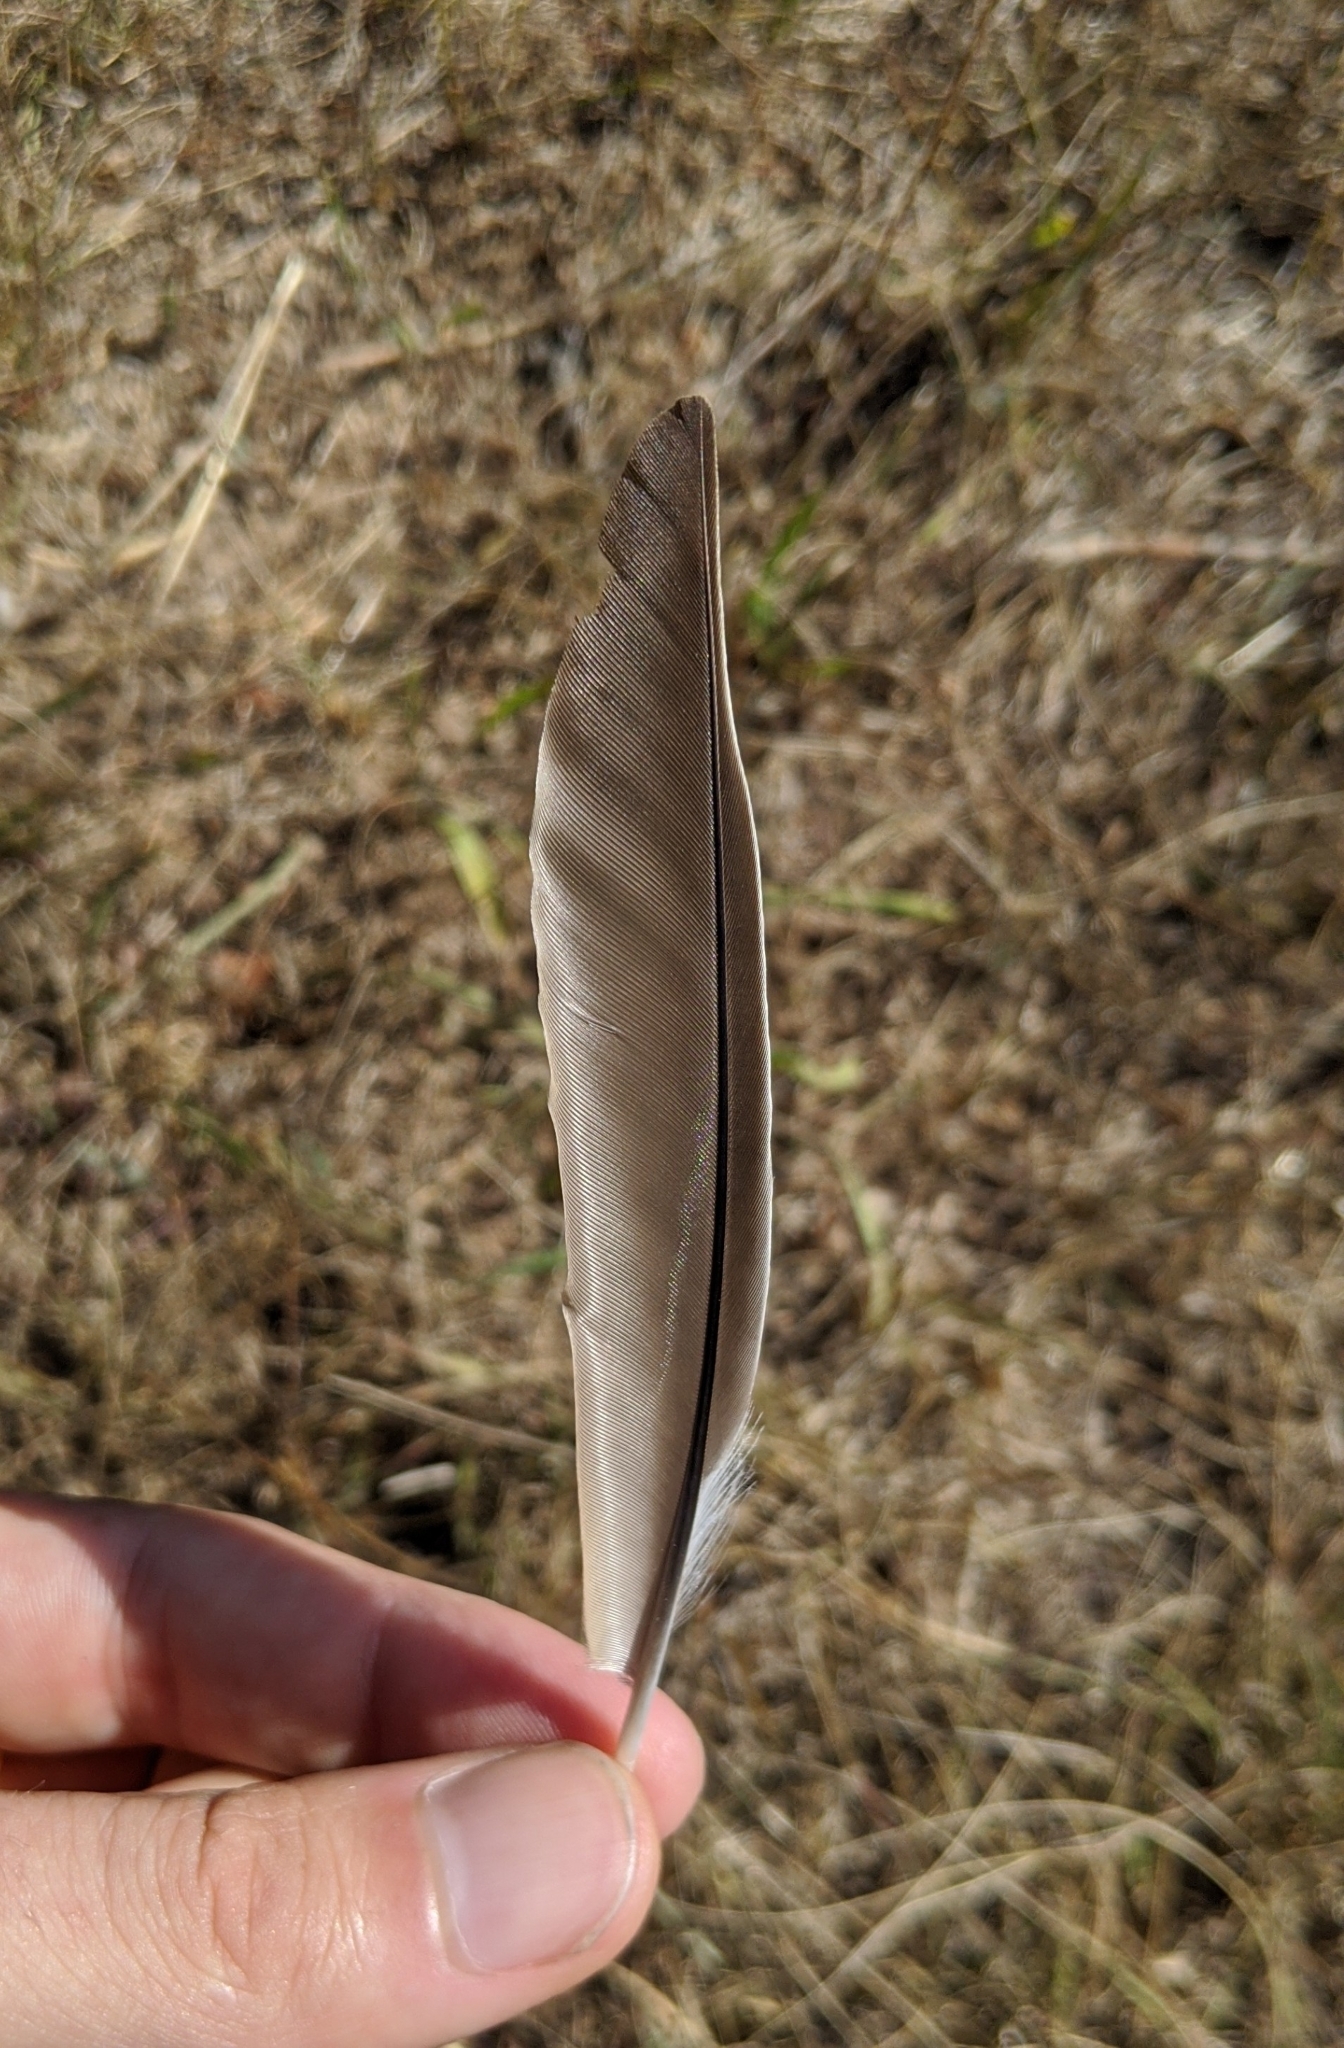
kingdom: Animalia
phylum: Chordata
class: Aves
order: Passeriformes
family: Turdidae
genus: Turdus
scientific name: Turdus migratorius
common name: American robin
